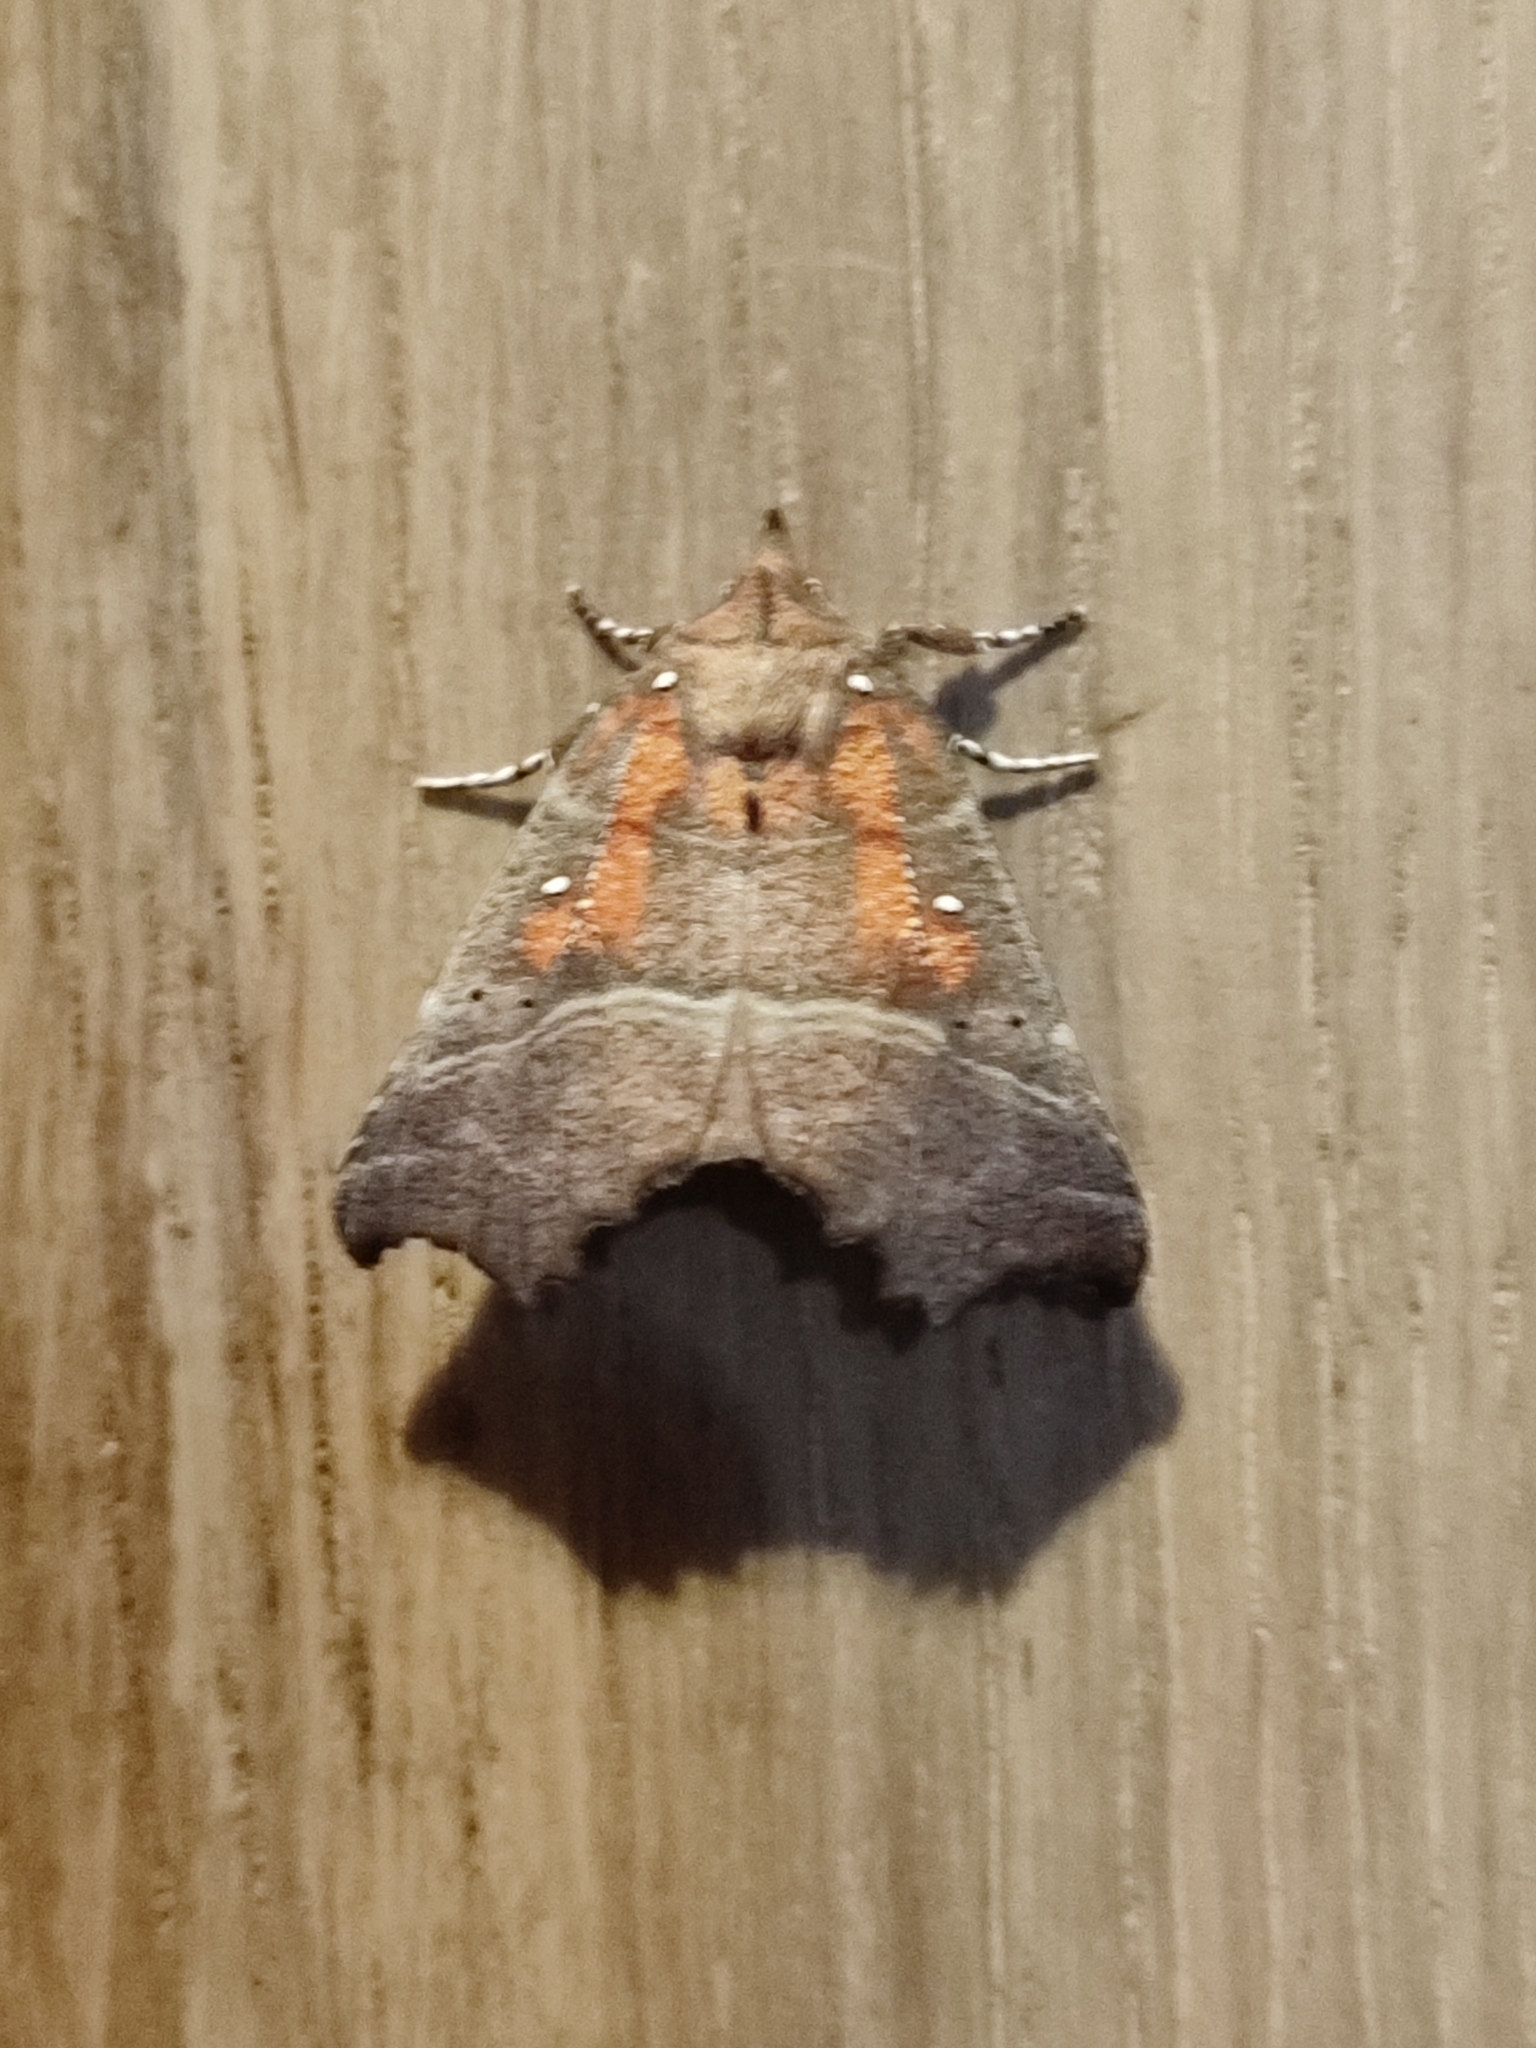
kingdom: Animalia
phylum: Arthropoda
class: Insecta
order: Lepidoptera
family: Erebidae
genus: Scoliopteryx
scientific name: Scoliopteryx libatrix
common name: Herald
